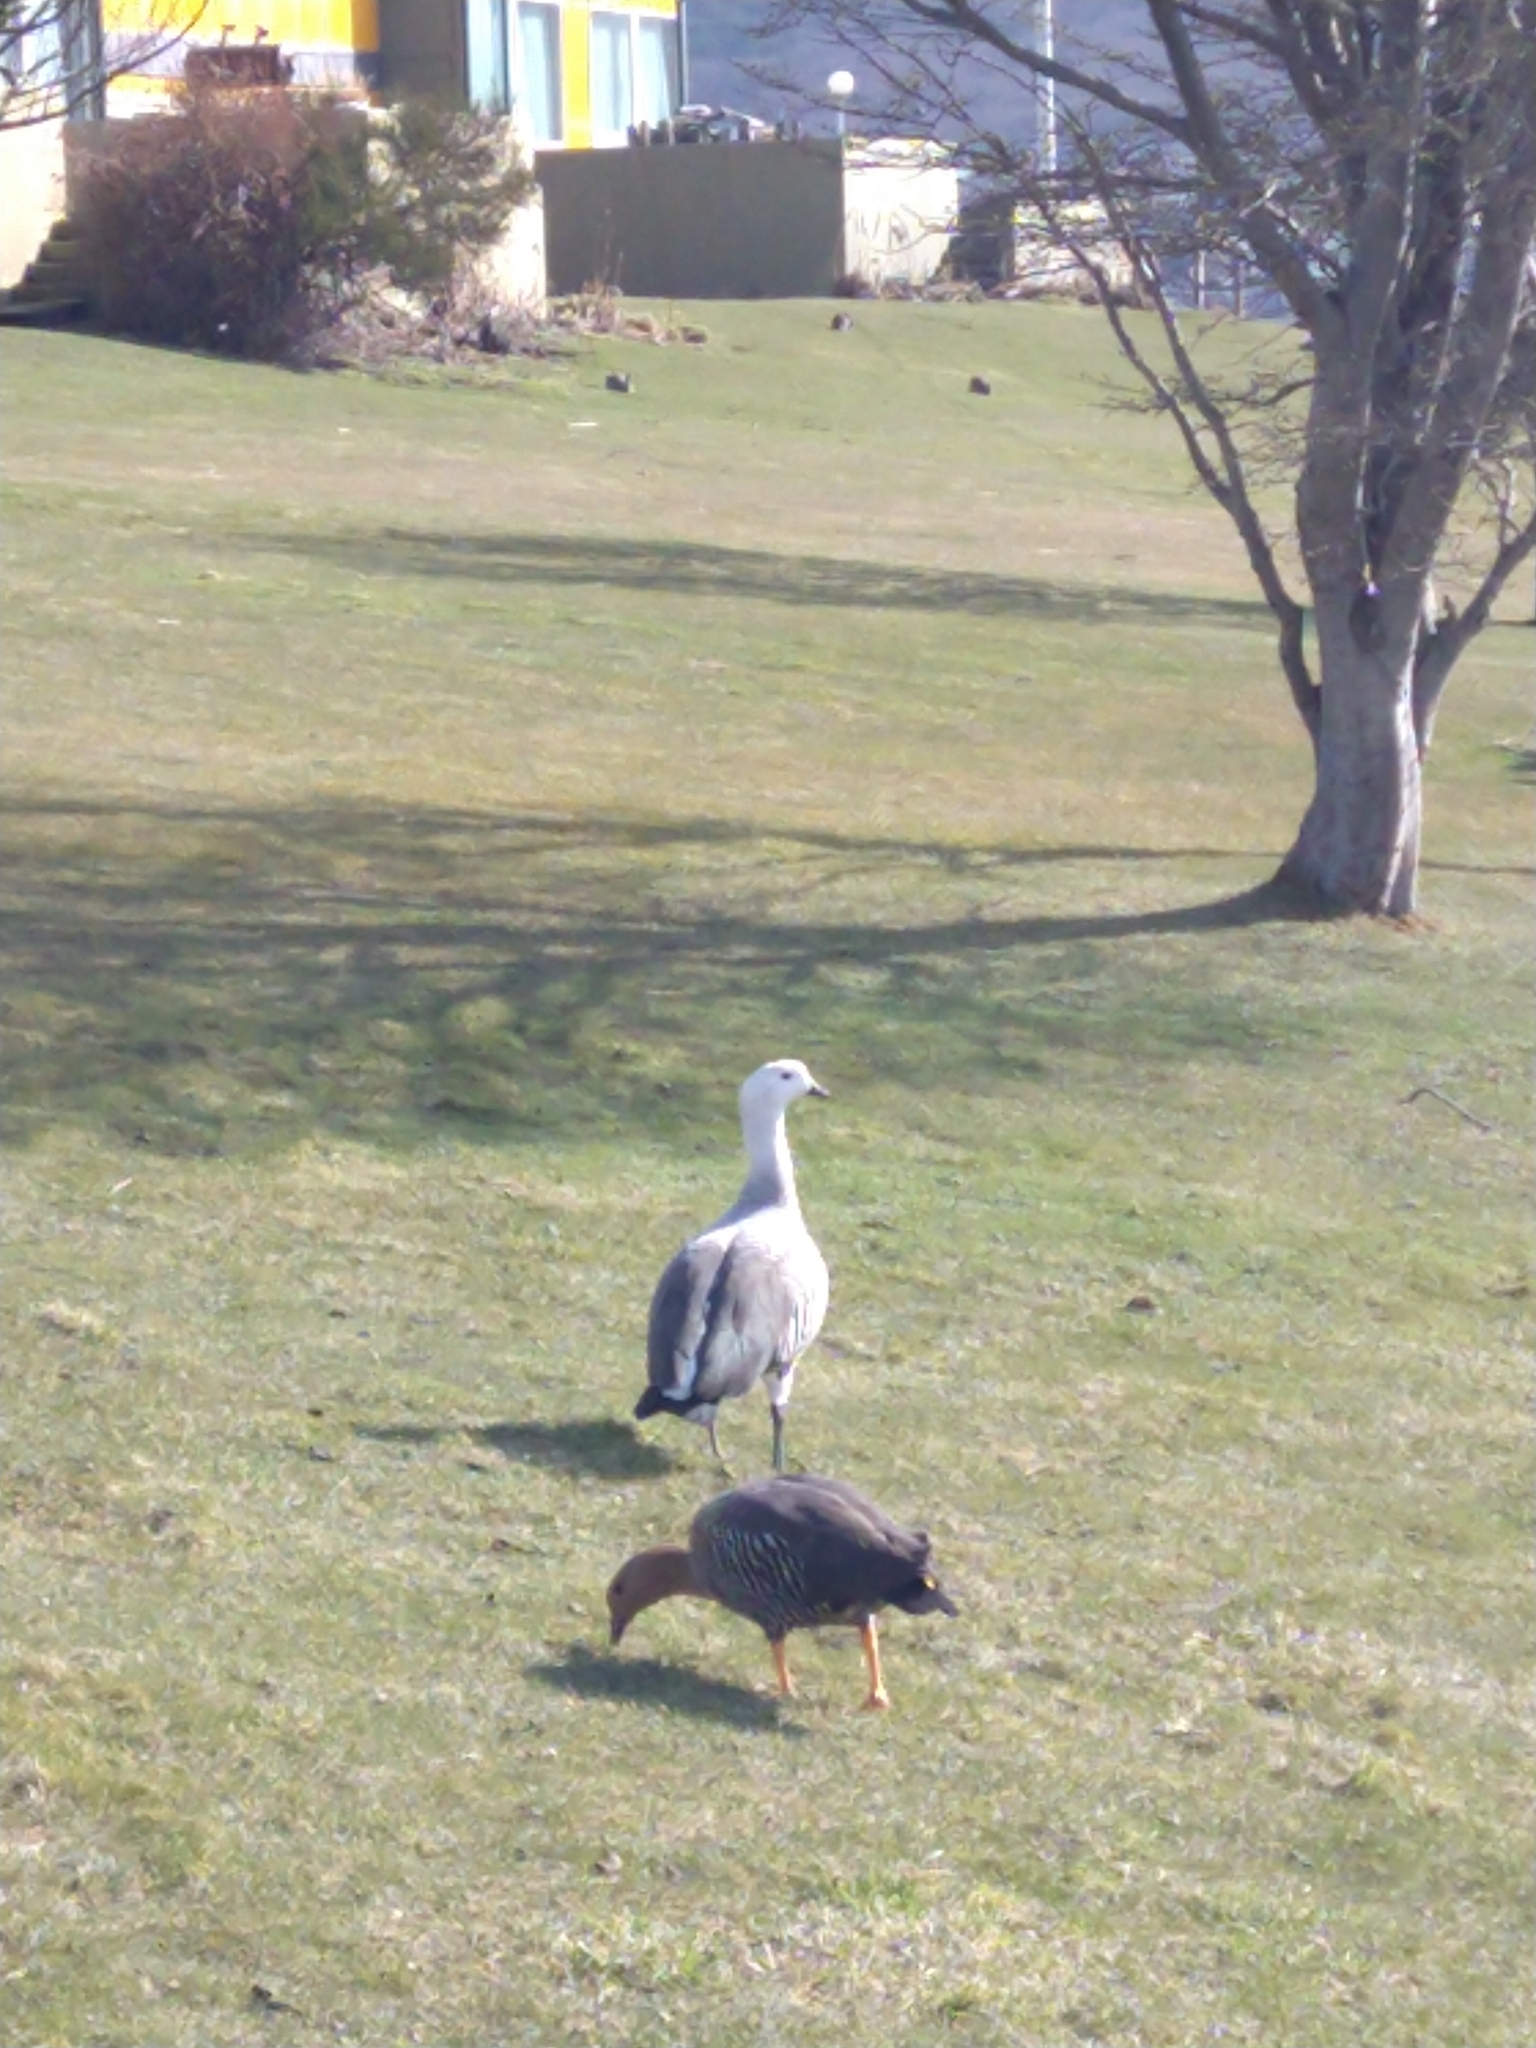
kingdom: Animalia
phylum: Chordata
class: Aves
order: Anseriformes
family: Anatidae
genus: Chloephaga
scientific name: Chloephaga picta
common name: Upland goose
